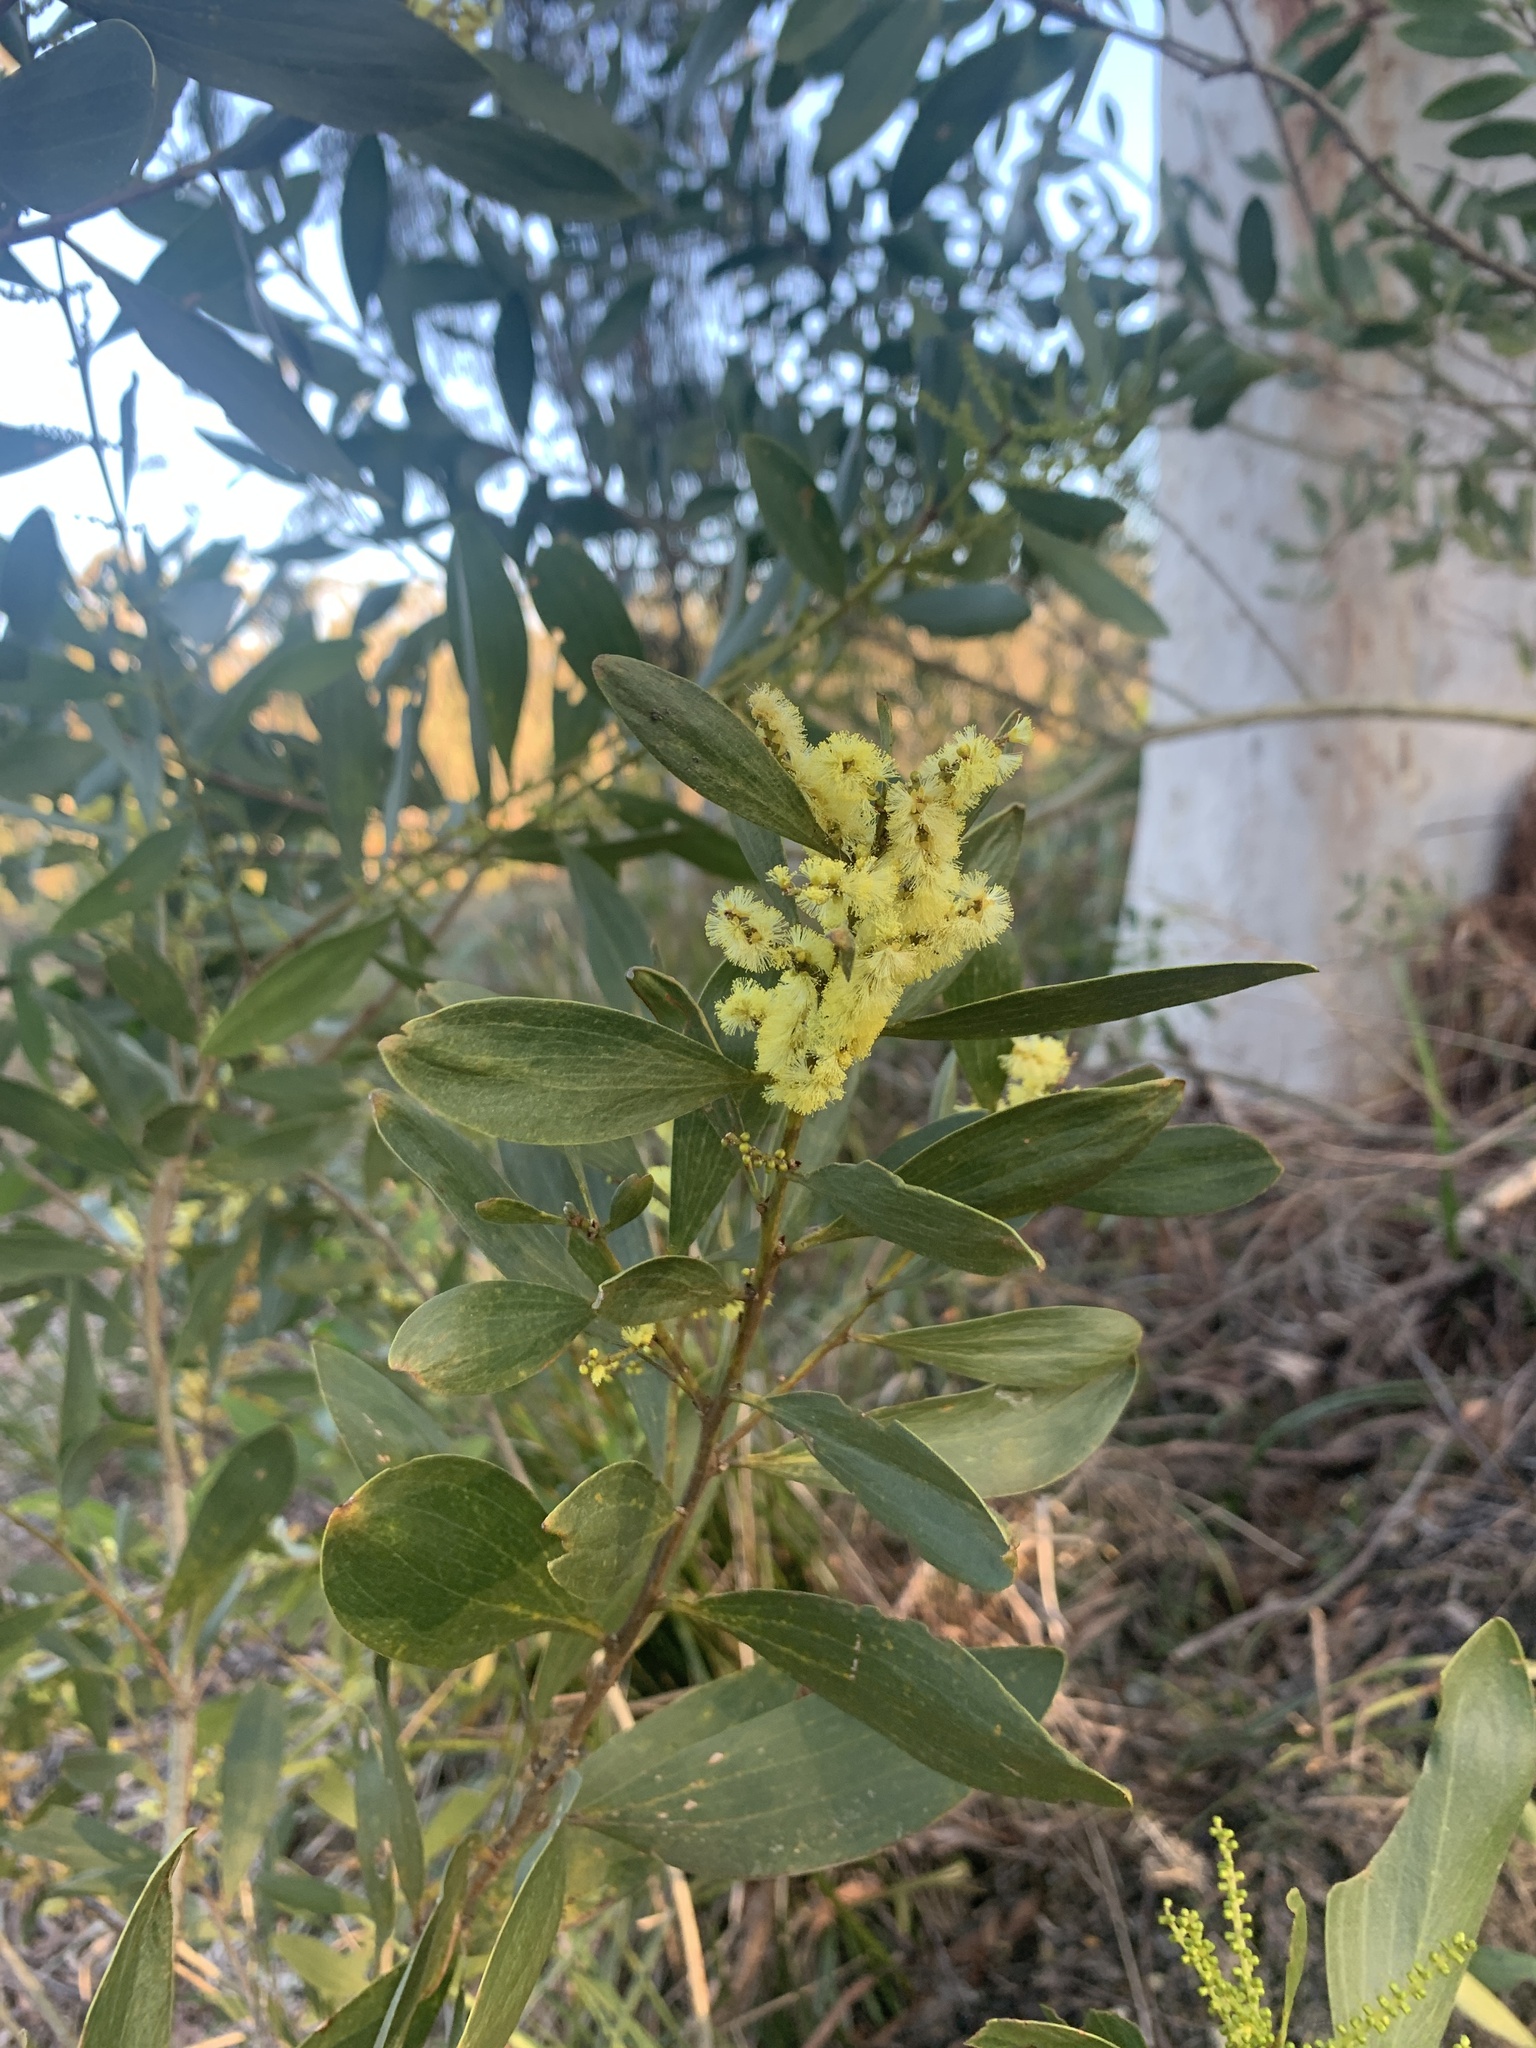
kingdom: Plantae
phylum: Tracheophyta
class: Magnoliopsida
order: Fabales
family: Fabaceae
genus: Acacia
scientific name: Acacia longifolia
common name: Sydney golden wattle
